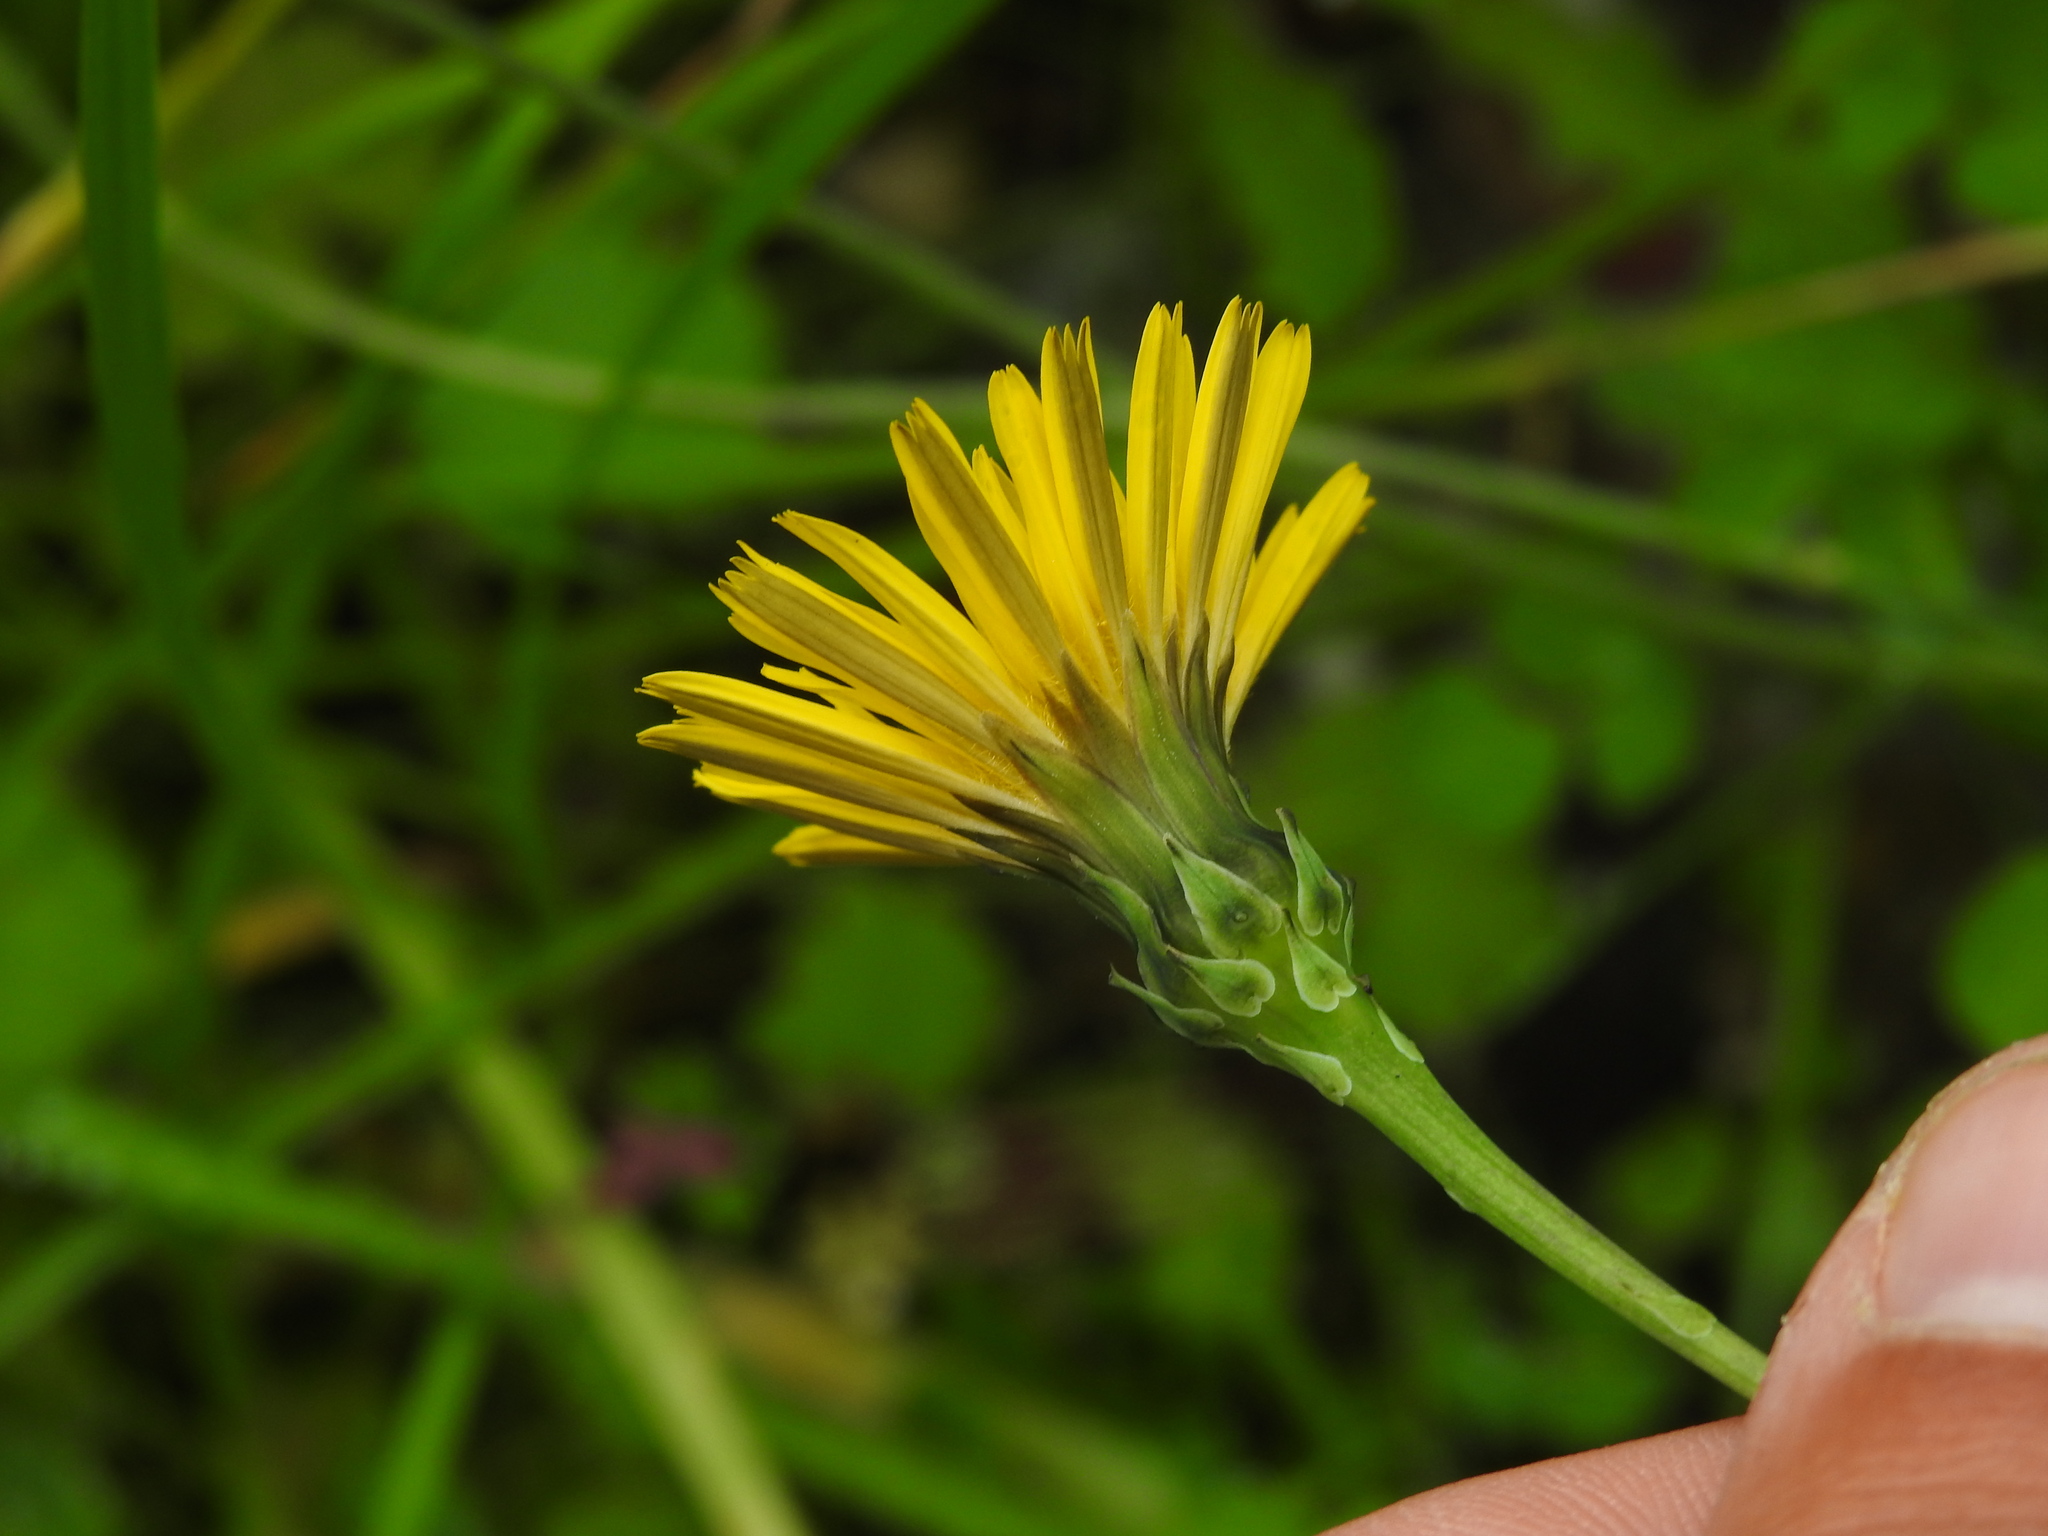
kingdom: Plantae
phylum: Tracheophyta
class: Magnoliopsida
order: Asterales
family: Asteraceae
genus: Reichardia
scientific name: Reichardia picroides
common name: Common brighteyes
